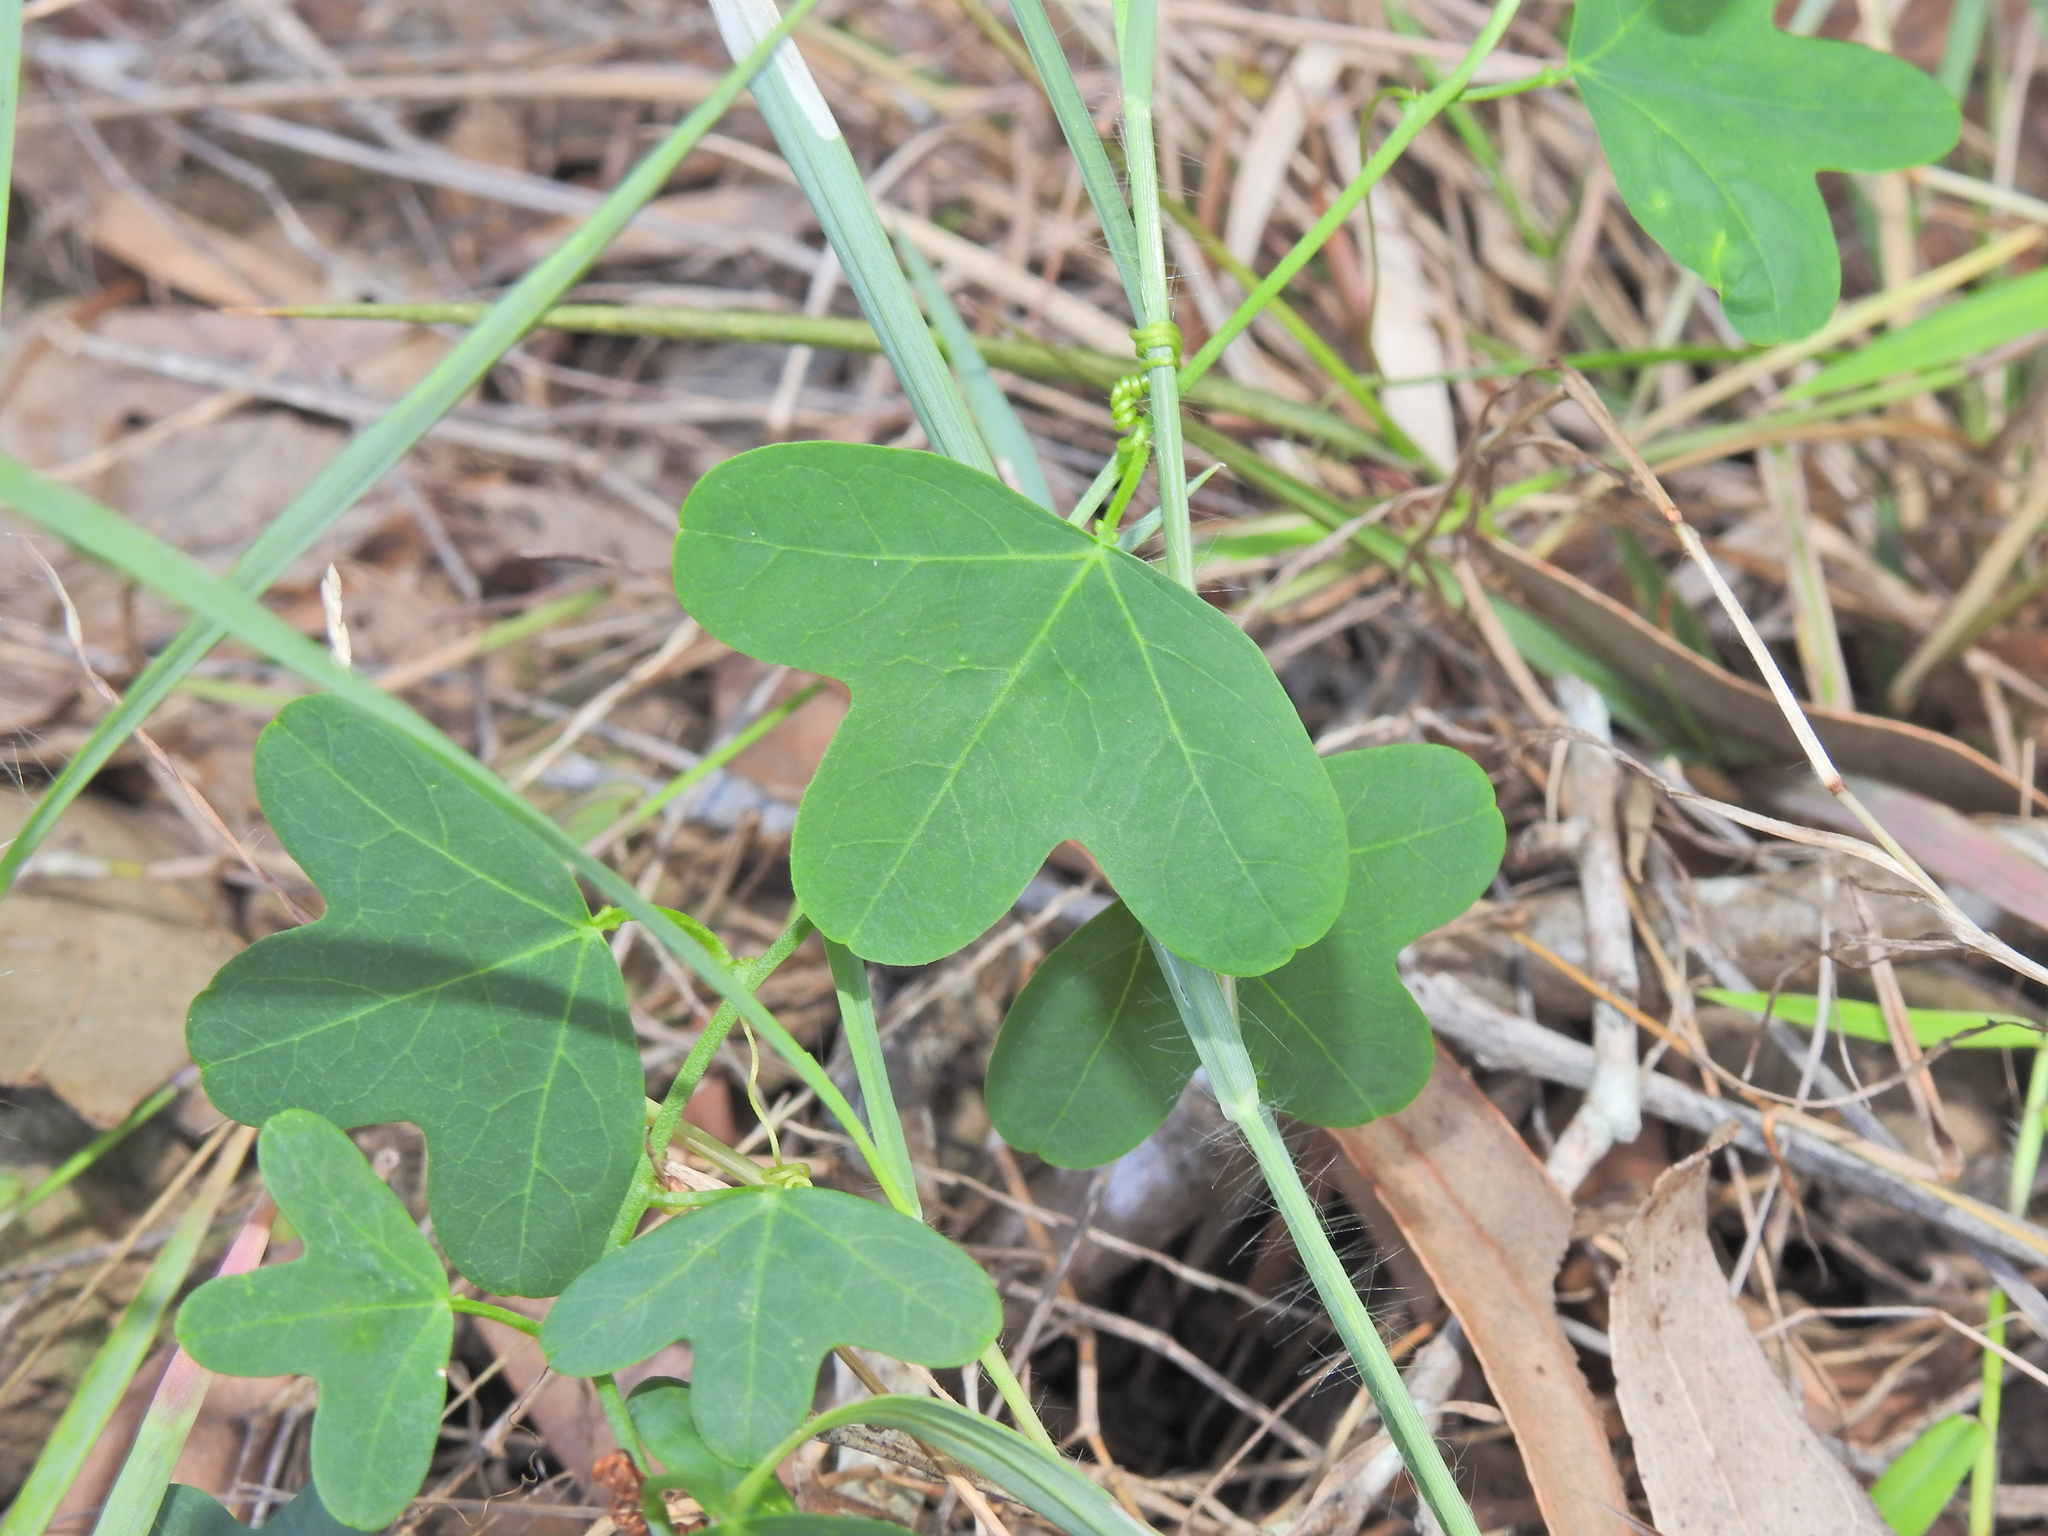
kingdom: Plantae
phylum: Tracheophyta
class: Magnoliopsida
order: Malpighiales
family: Passifloraceae
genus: Passiflora
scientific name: Passiflora aurantia
